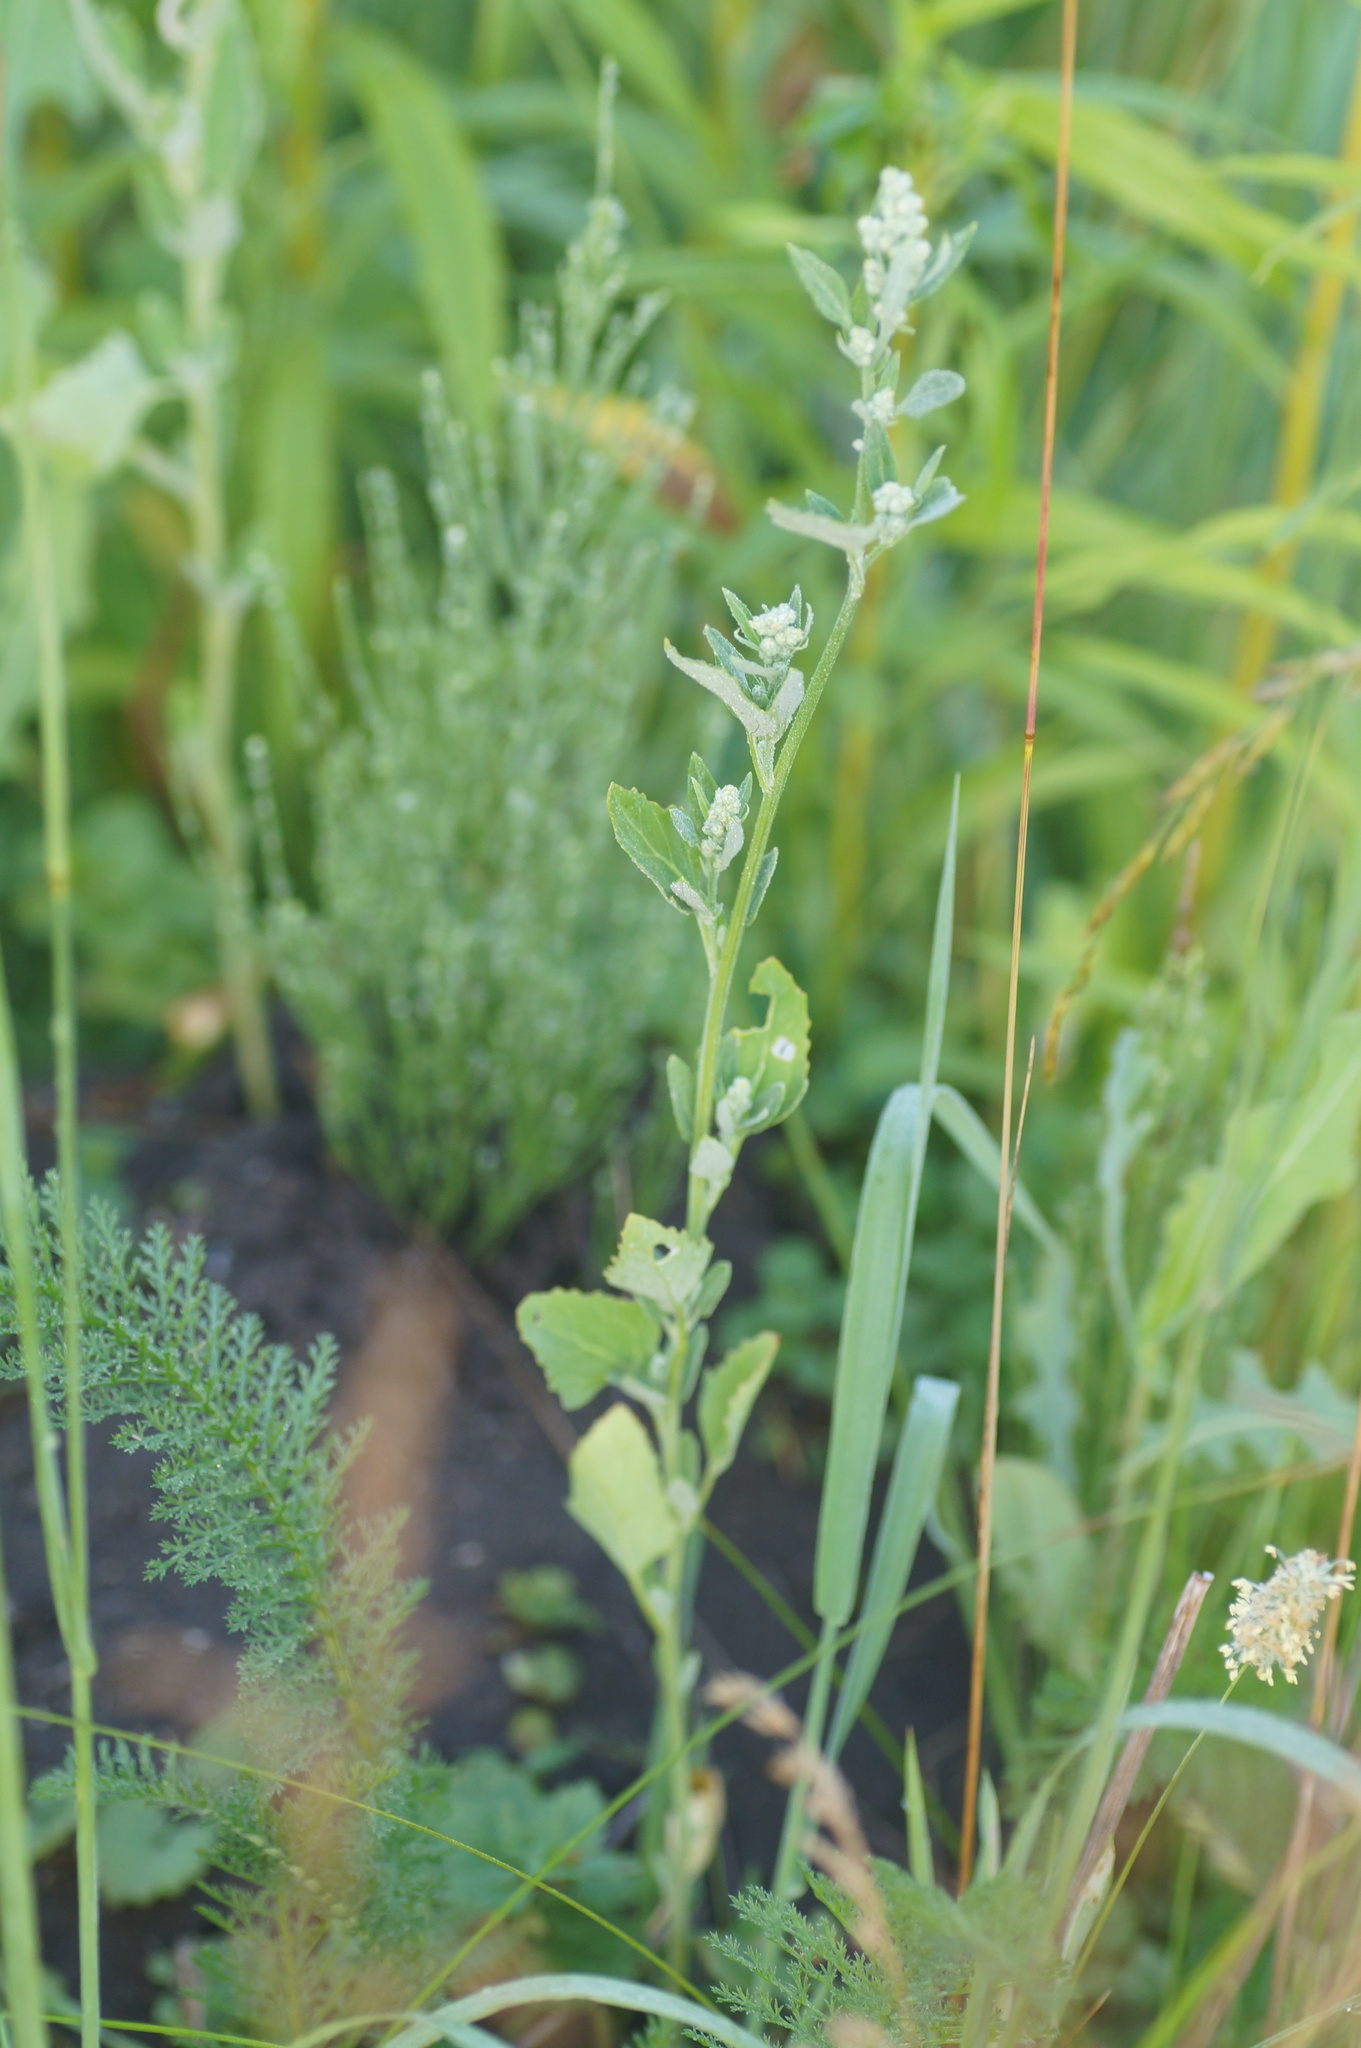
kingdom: Plantae
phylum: Tracheophyta
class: Magnoliopsida
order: Caryophyllales
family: Amaranthaceae
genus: Chenopodium
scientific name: Chenopodium album
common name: Fat-hen
